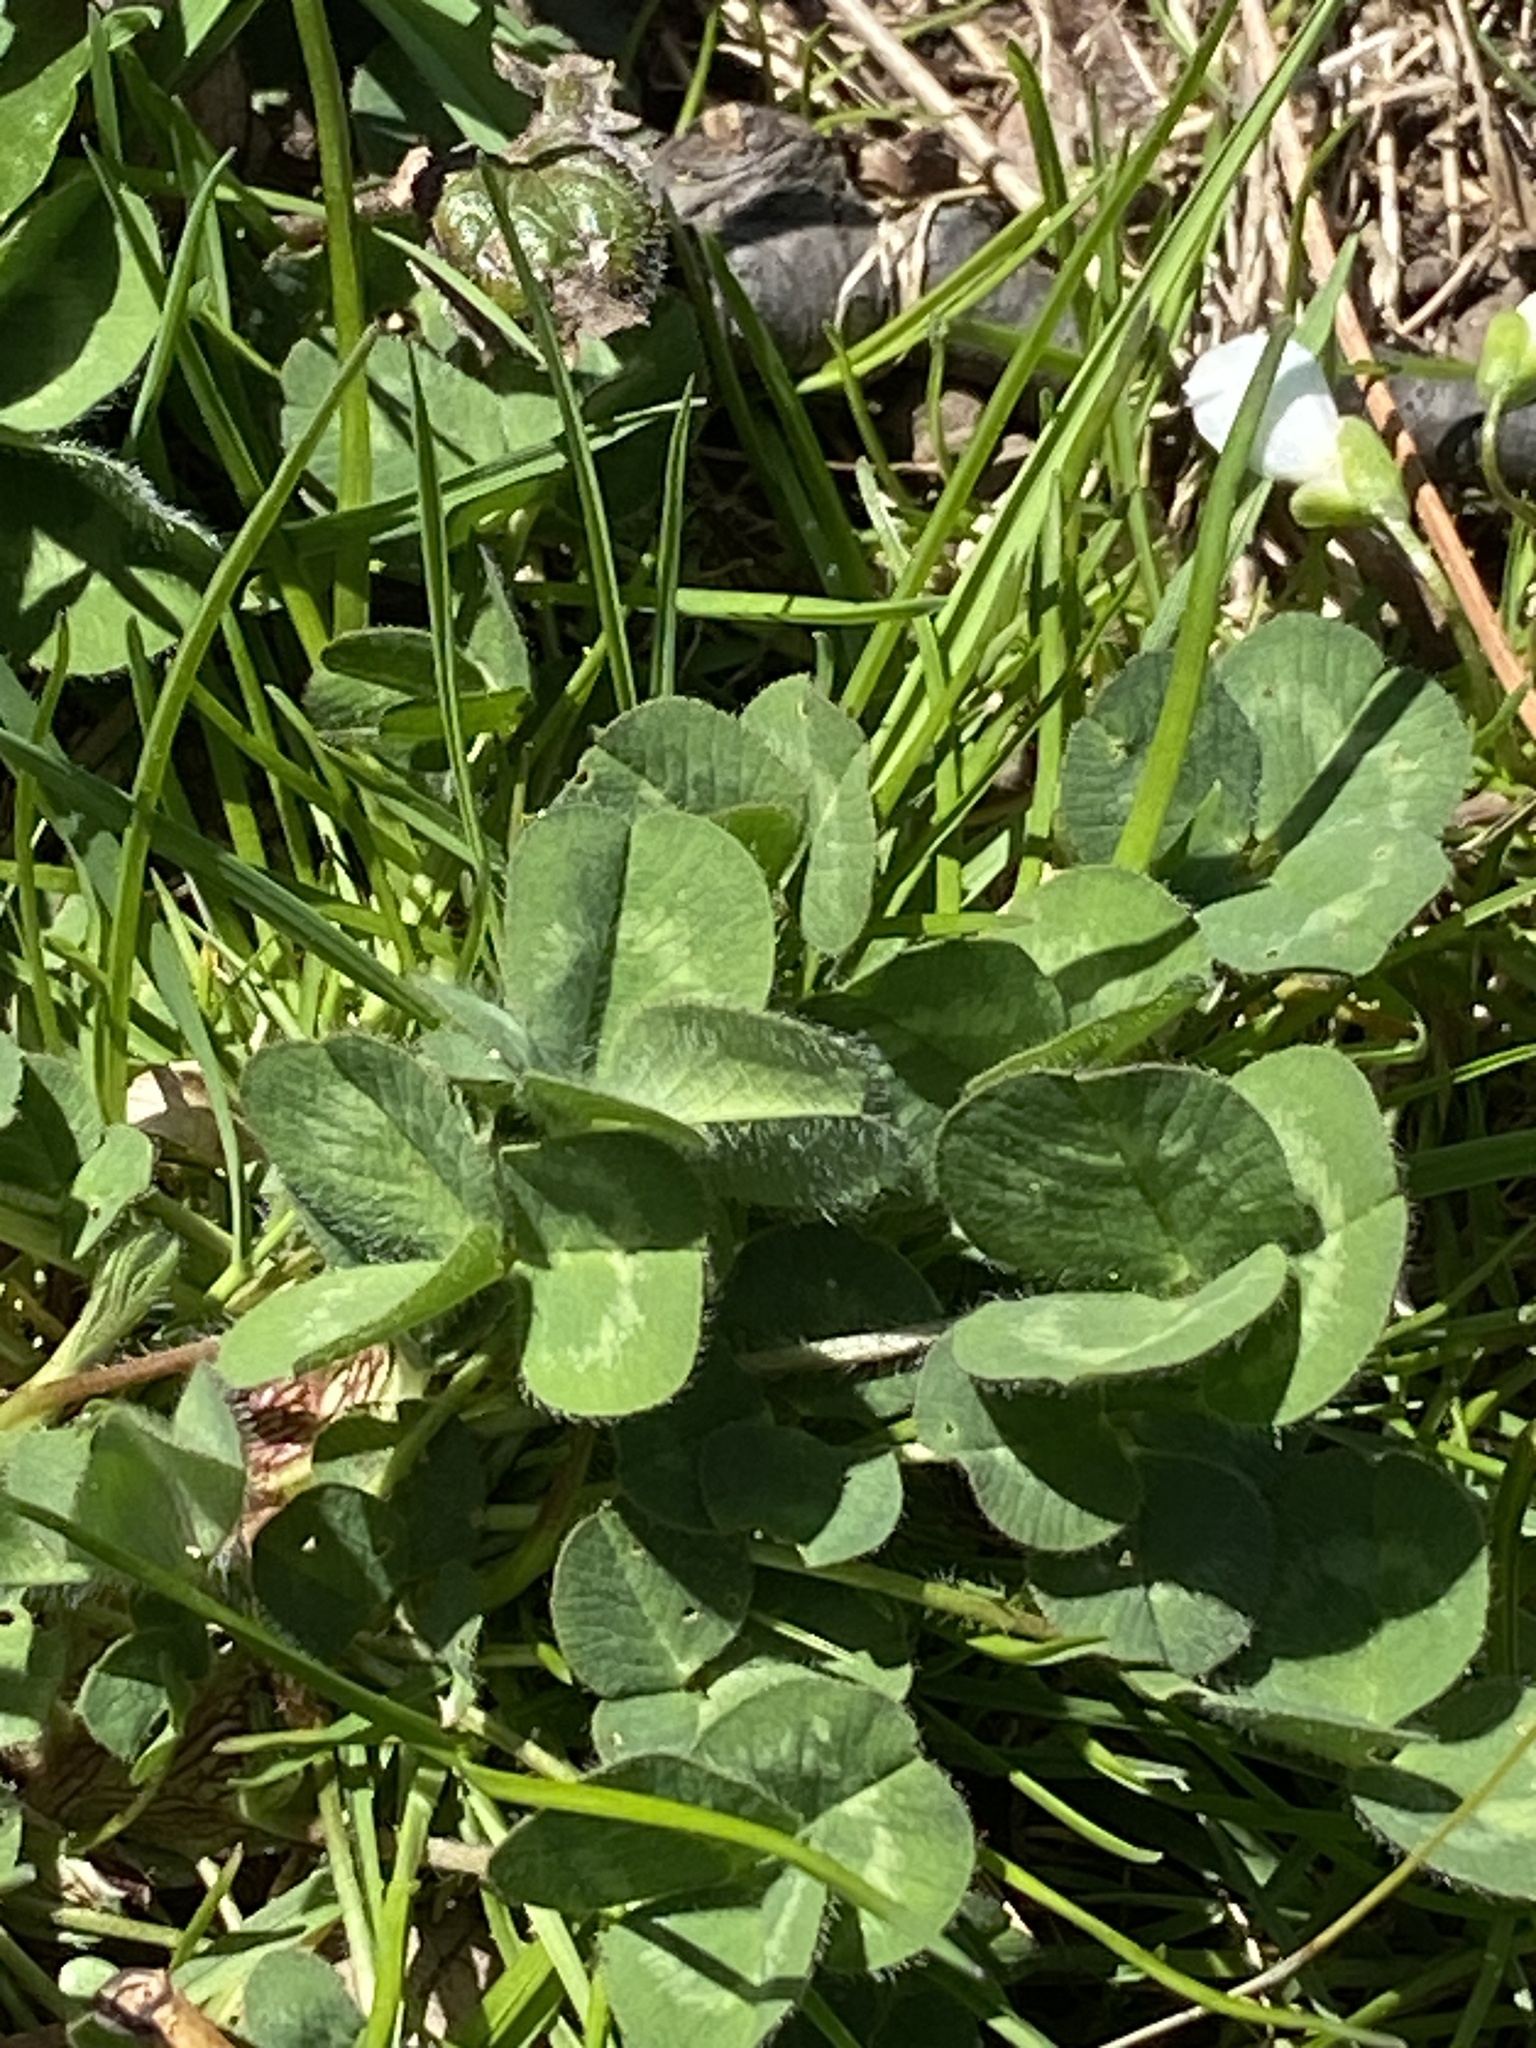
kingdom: Plantae
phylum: Tracheophyta
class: Magnoliopsida
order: Fabales
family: Fabaceae
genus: Trifolium
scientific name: Trifolium pratense
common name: Red clover
